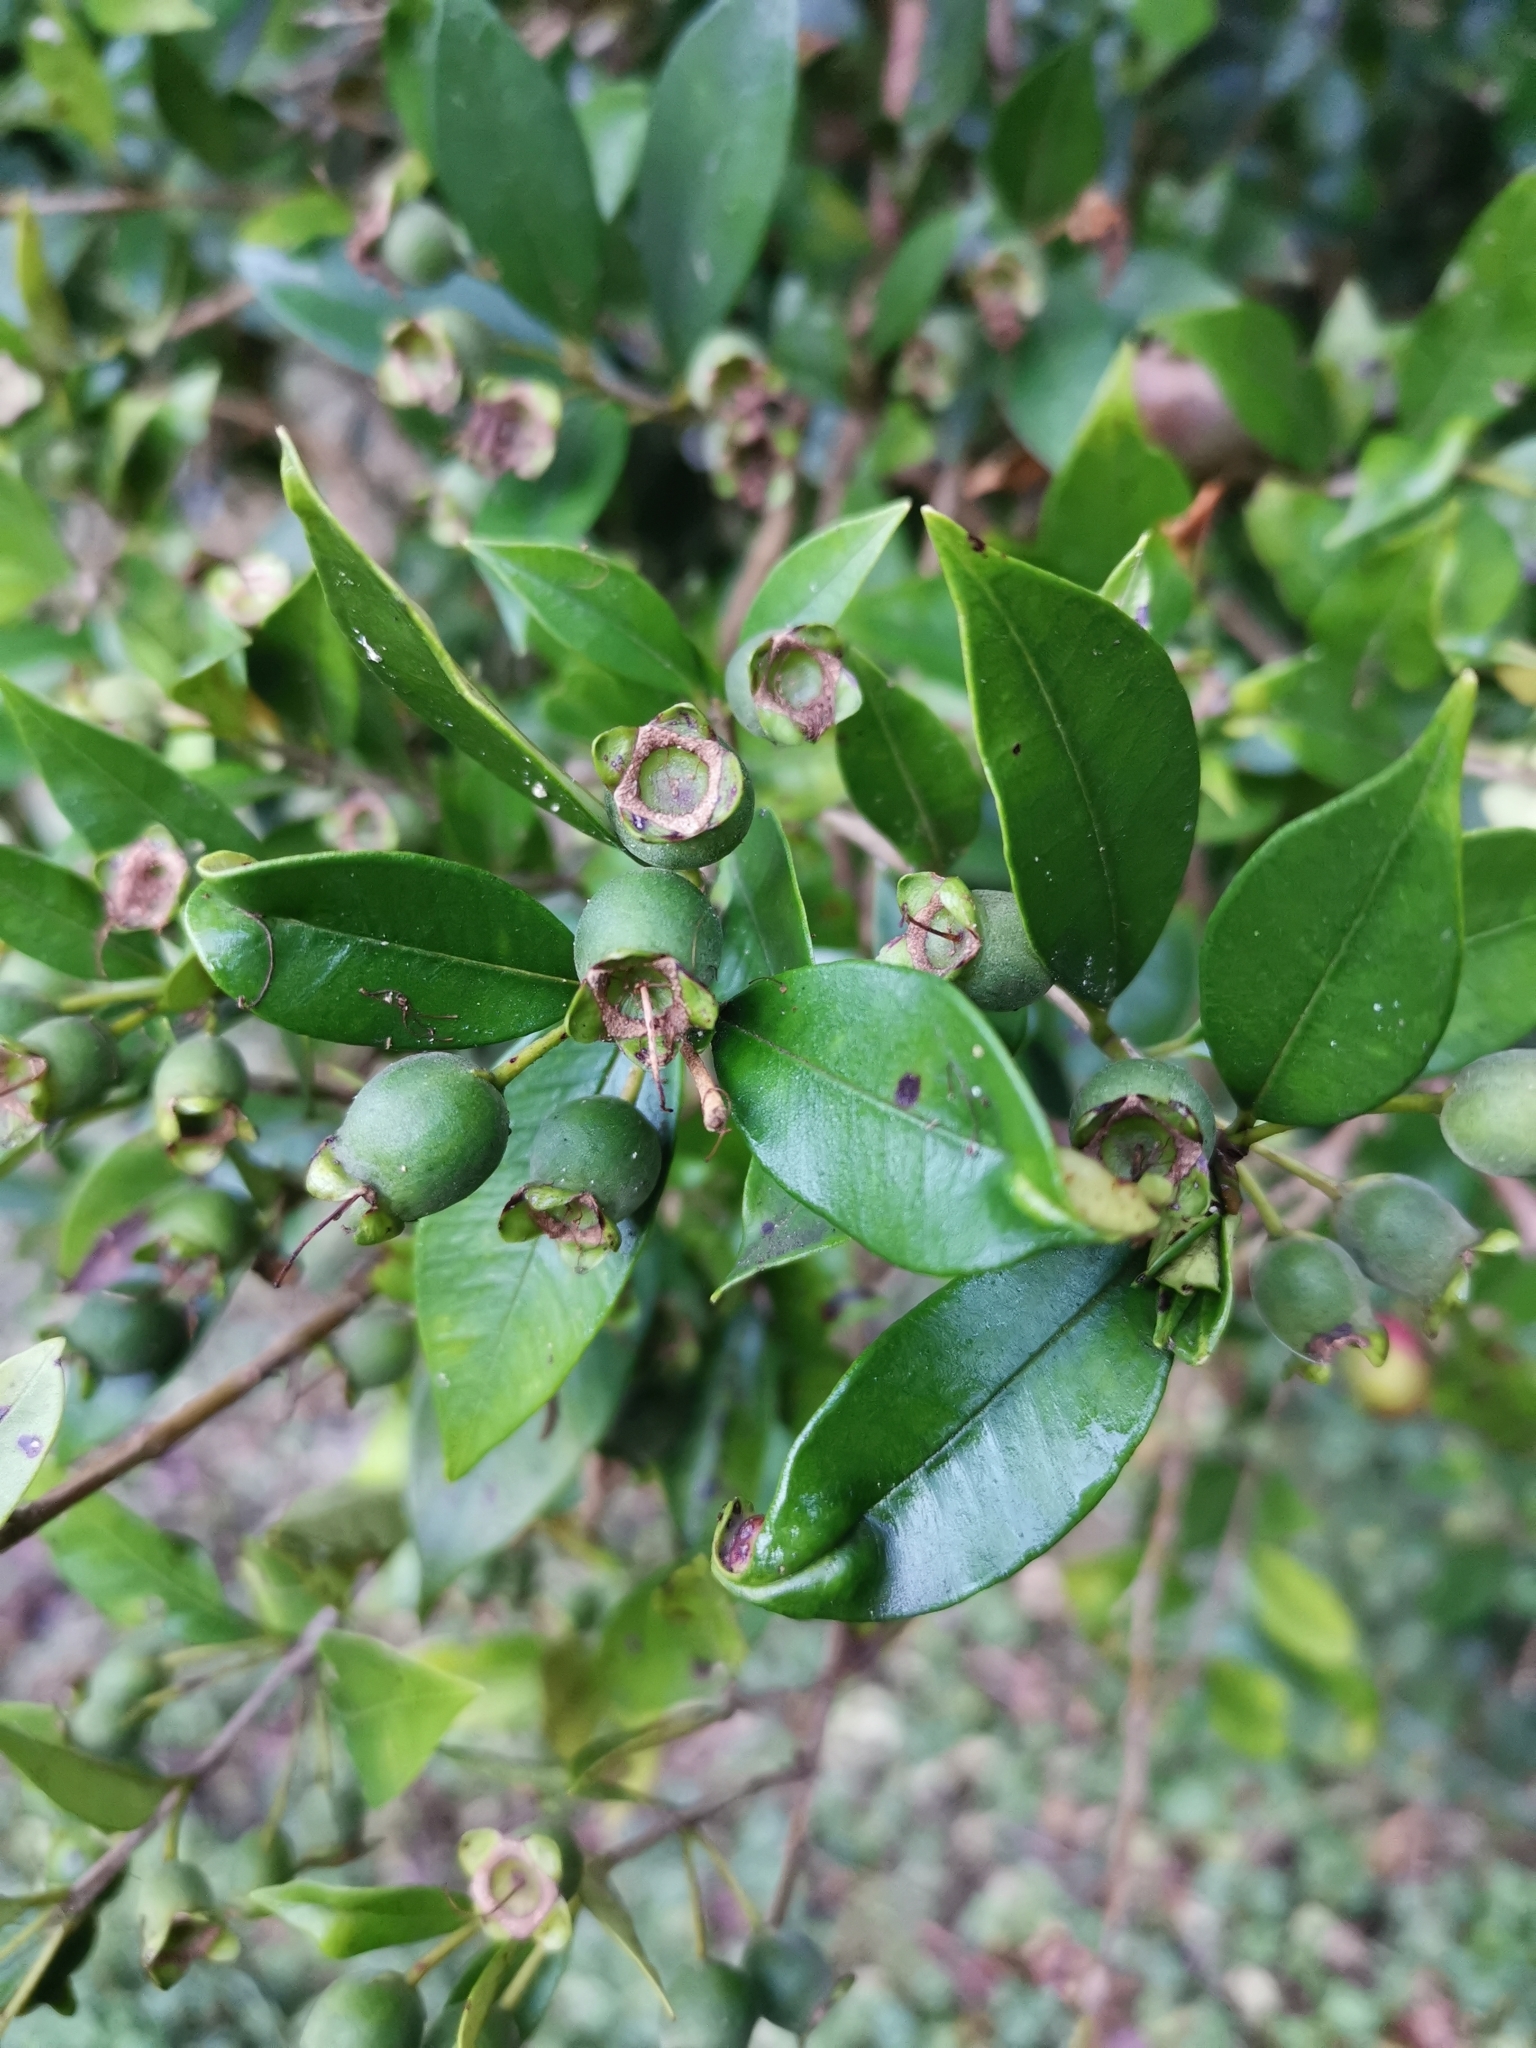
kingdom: Plantae
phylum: Tracheophyta
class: Magnoliopsida
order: Myrtales
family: Myrtaceae
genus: Myrceugenia
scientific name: Myrceugenia planipes
